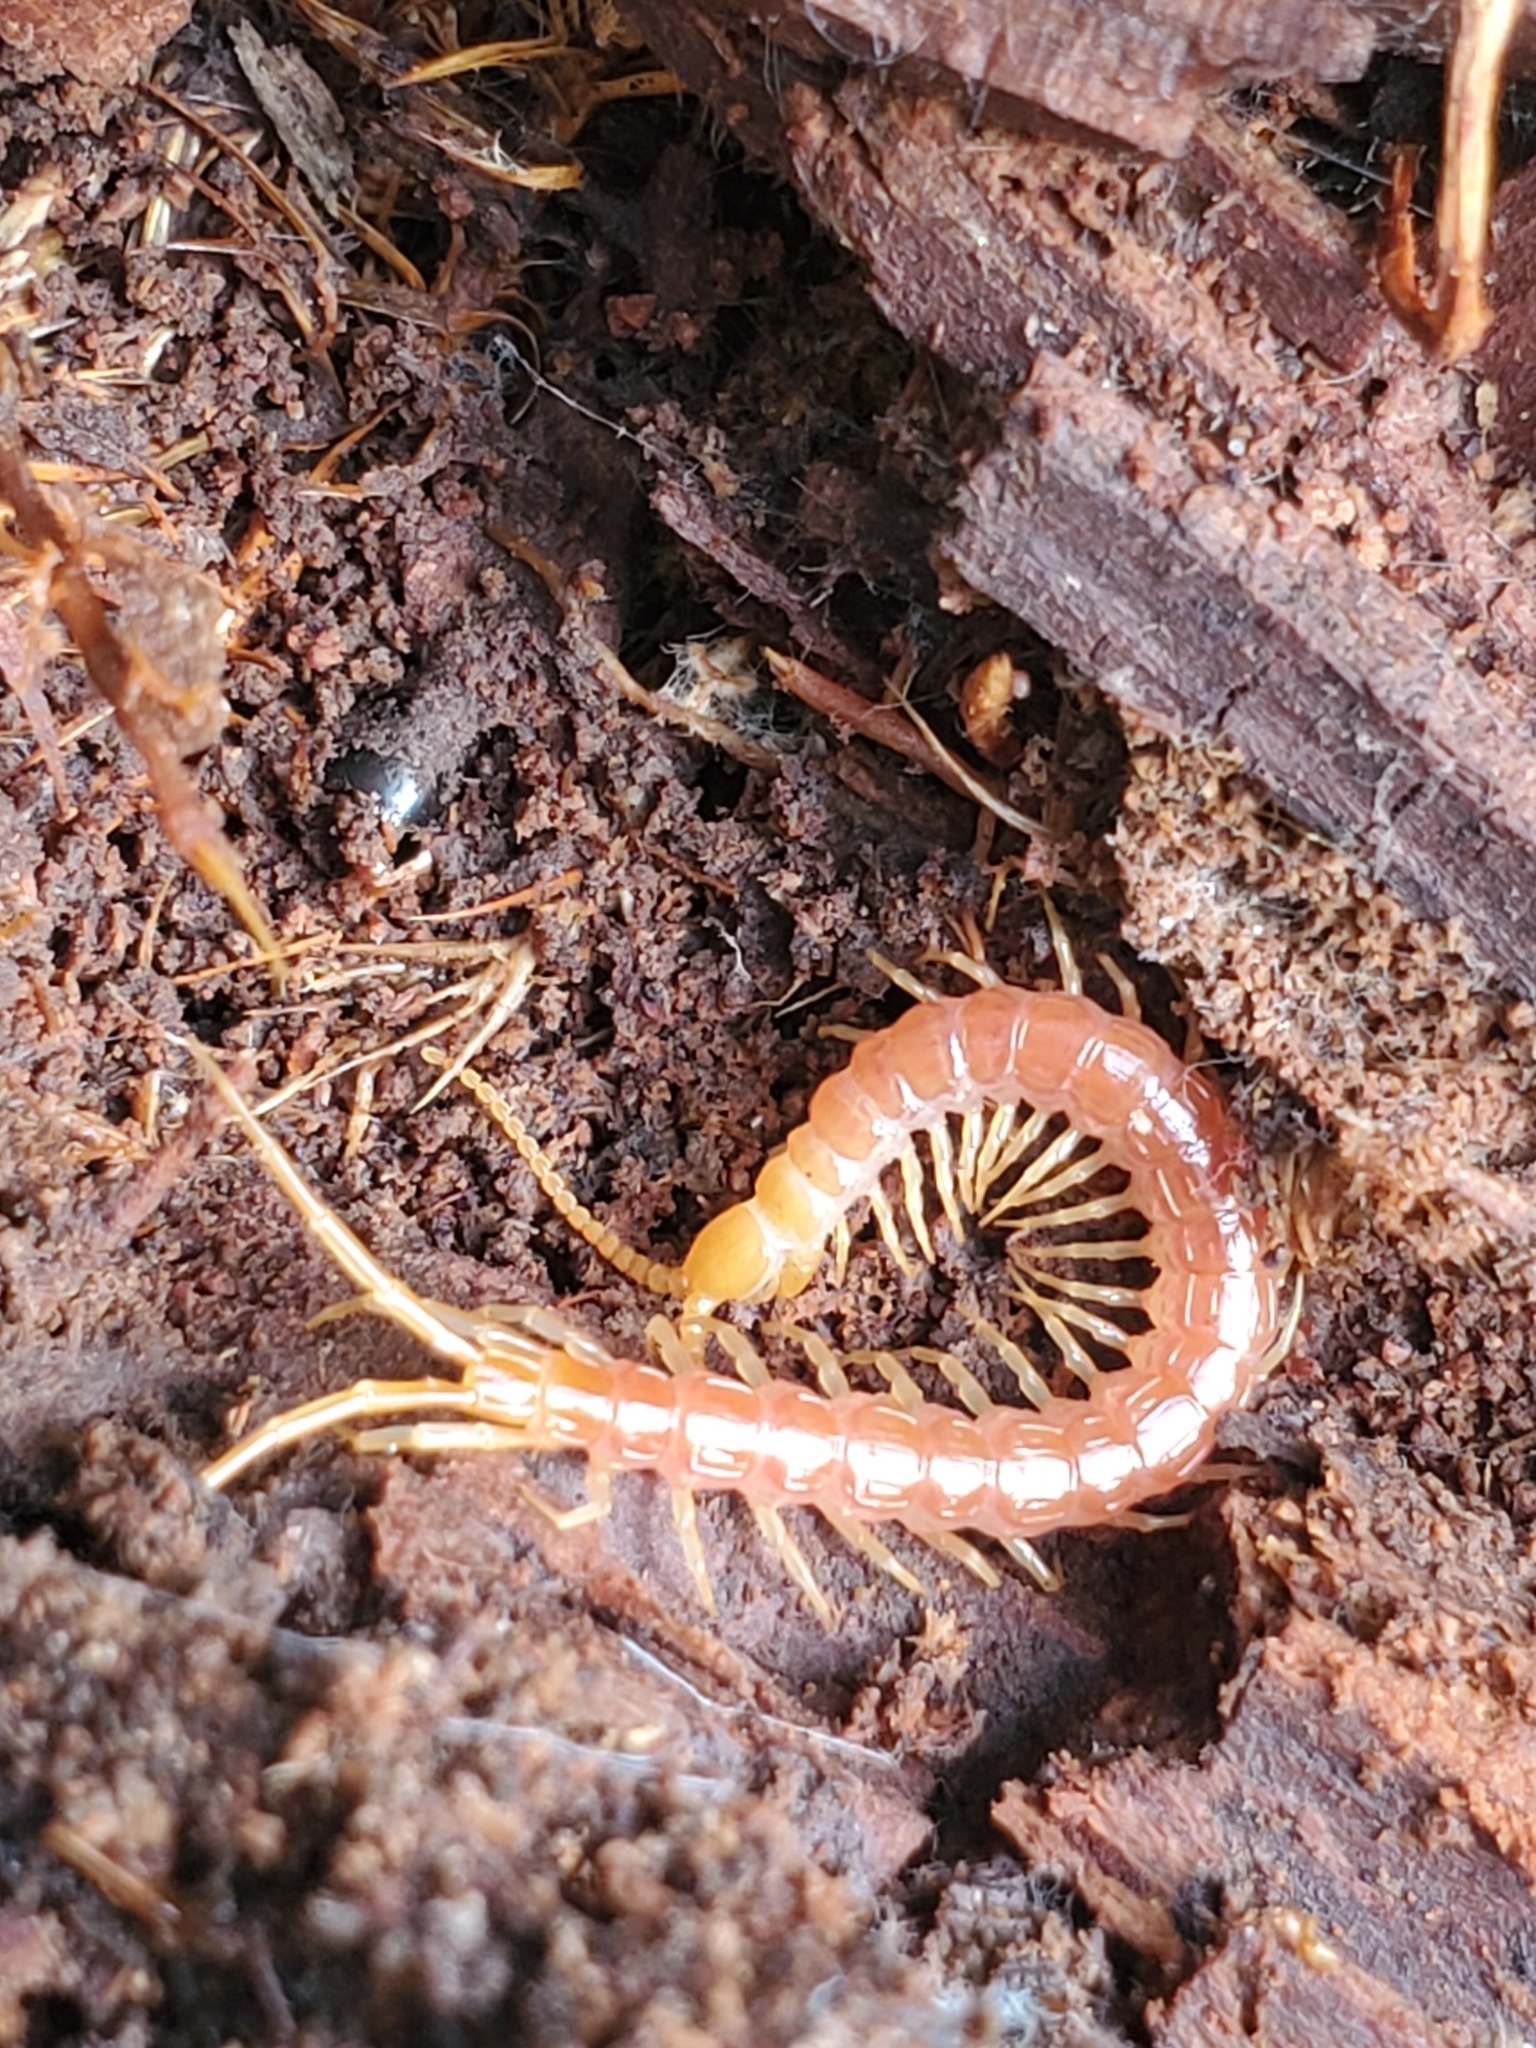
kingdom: Animalia
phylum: Arthropoda
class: Chilopoda
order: Scolopendromorpha
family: Scolopocryptopidae
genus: Scolopocryptops
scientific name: Scolopocryptops spinicaudus
